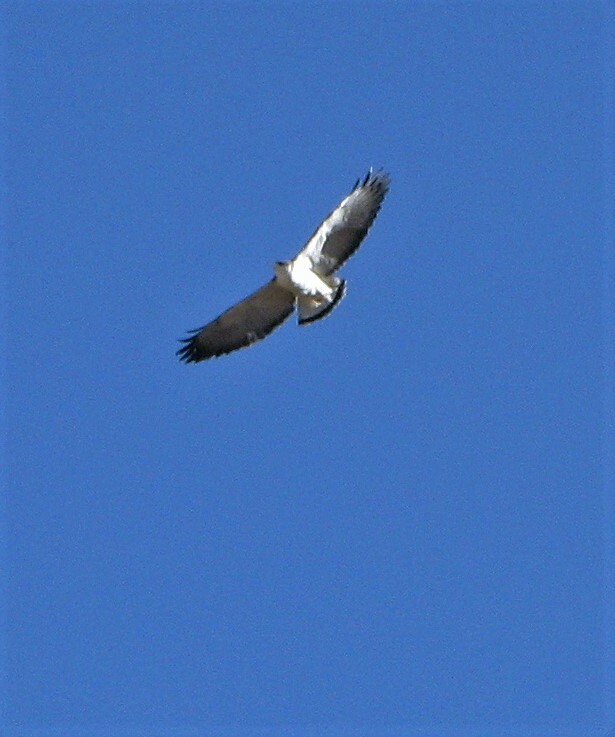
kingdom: Animalia
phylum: Chordata
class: Aves
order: Accipitriformes
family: Accipitridae
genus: Buteo
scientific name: Buteo polyosoma
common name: Variable hawk
